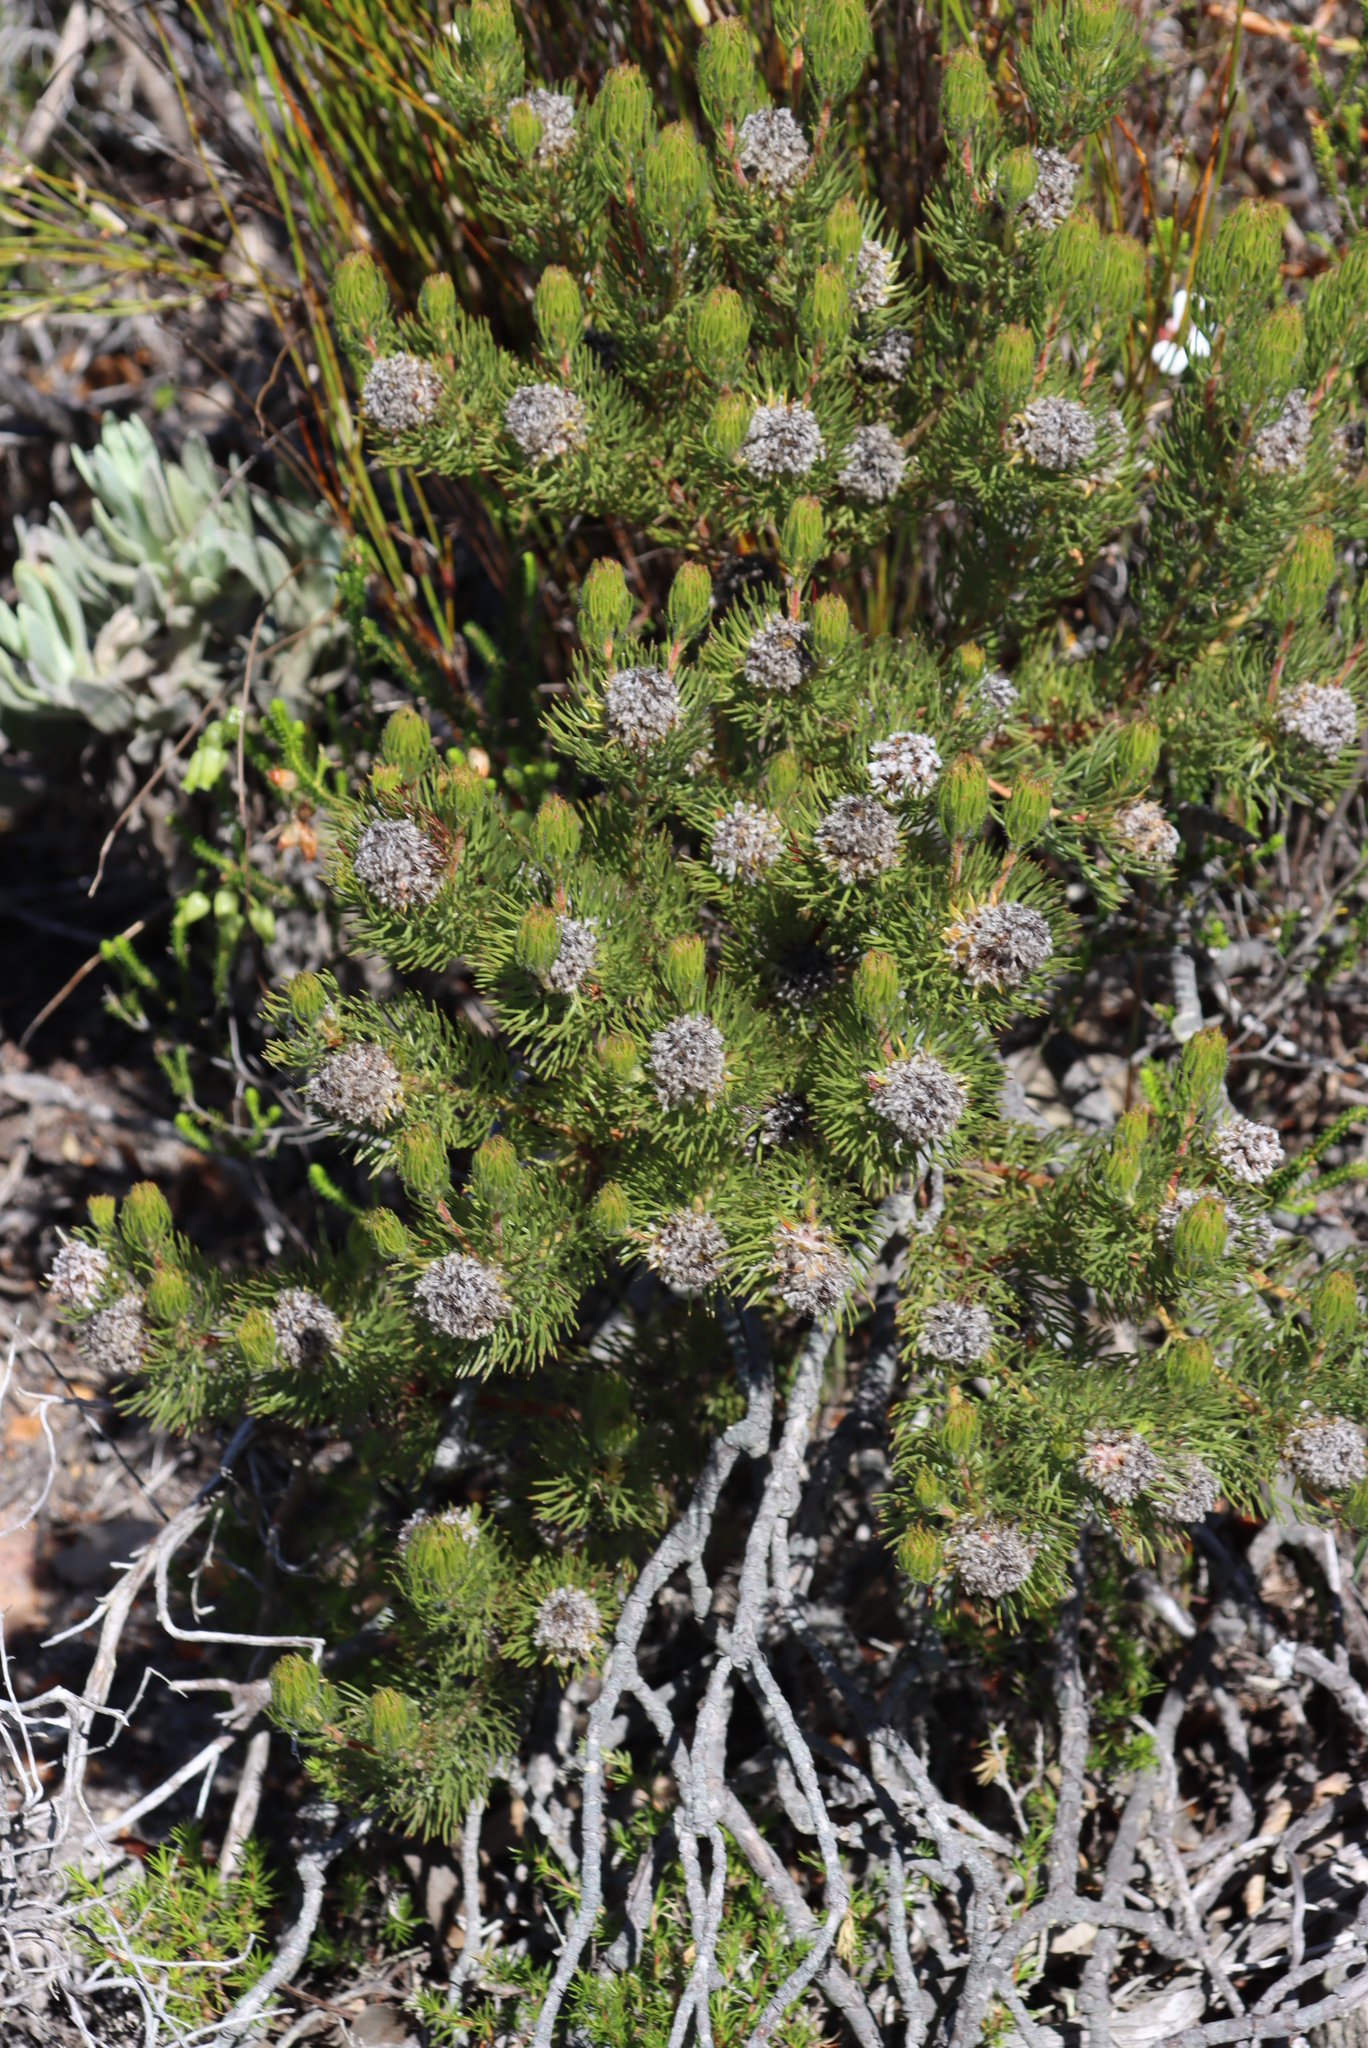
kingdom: Plantae
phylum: Tracheophyta
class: Magnoliopsida
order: Proteales
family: Proteaceae
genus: Serruria
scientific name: Serruria villosa
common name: Golden spiderhead
